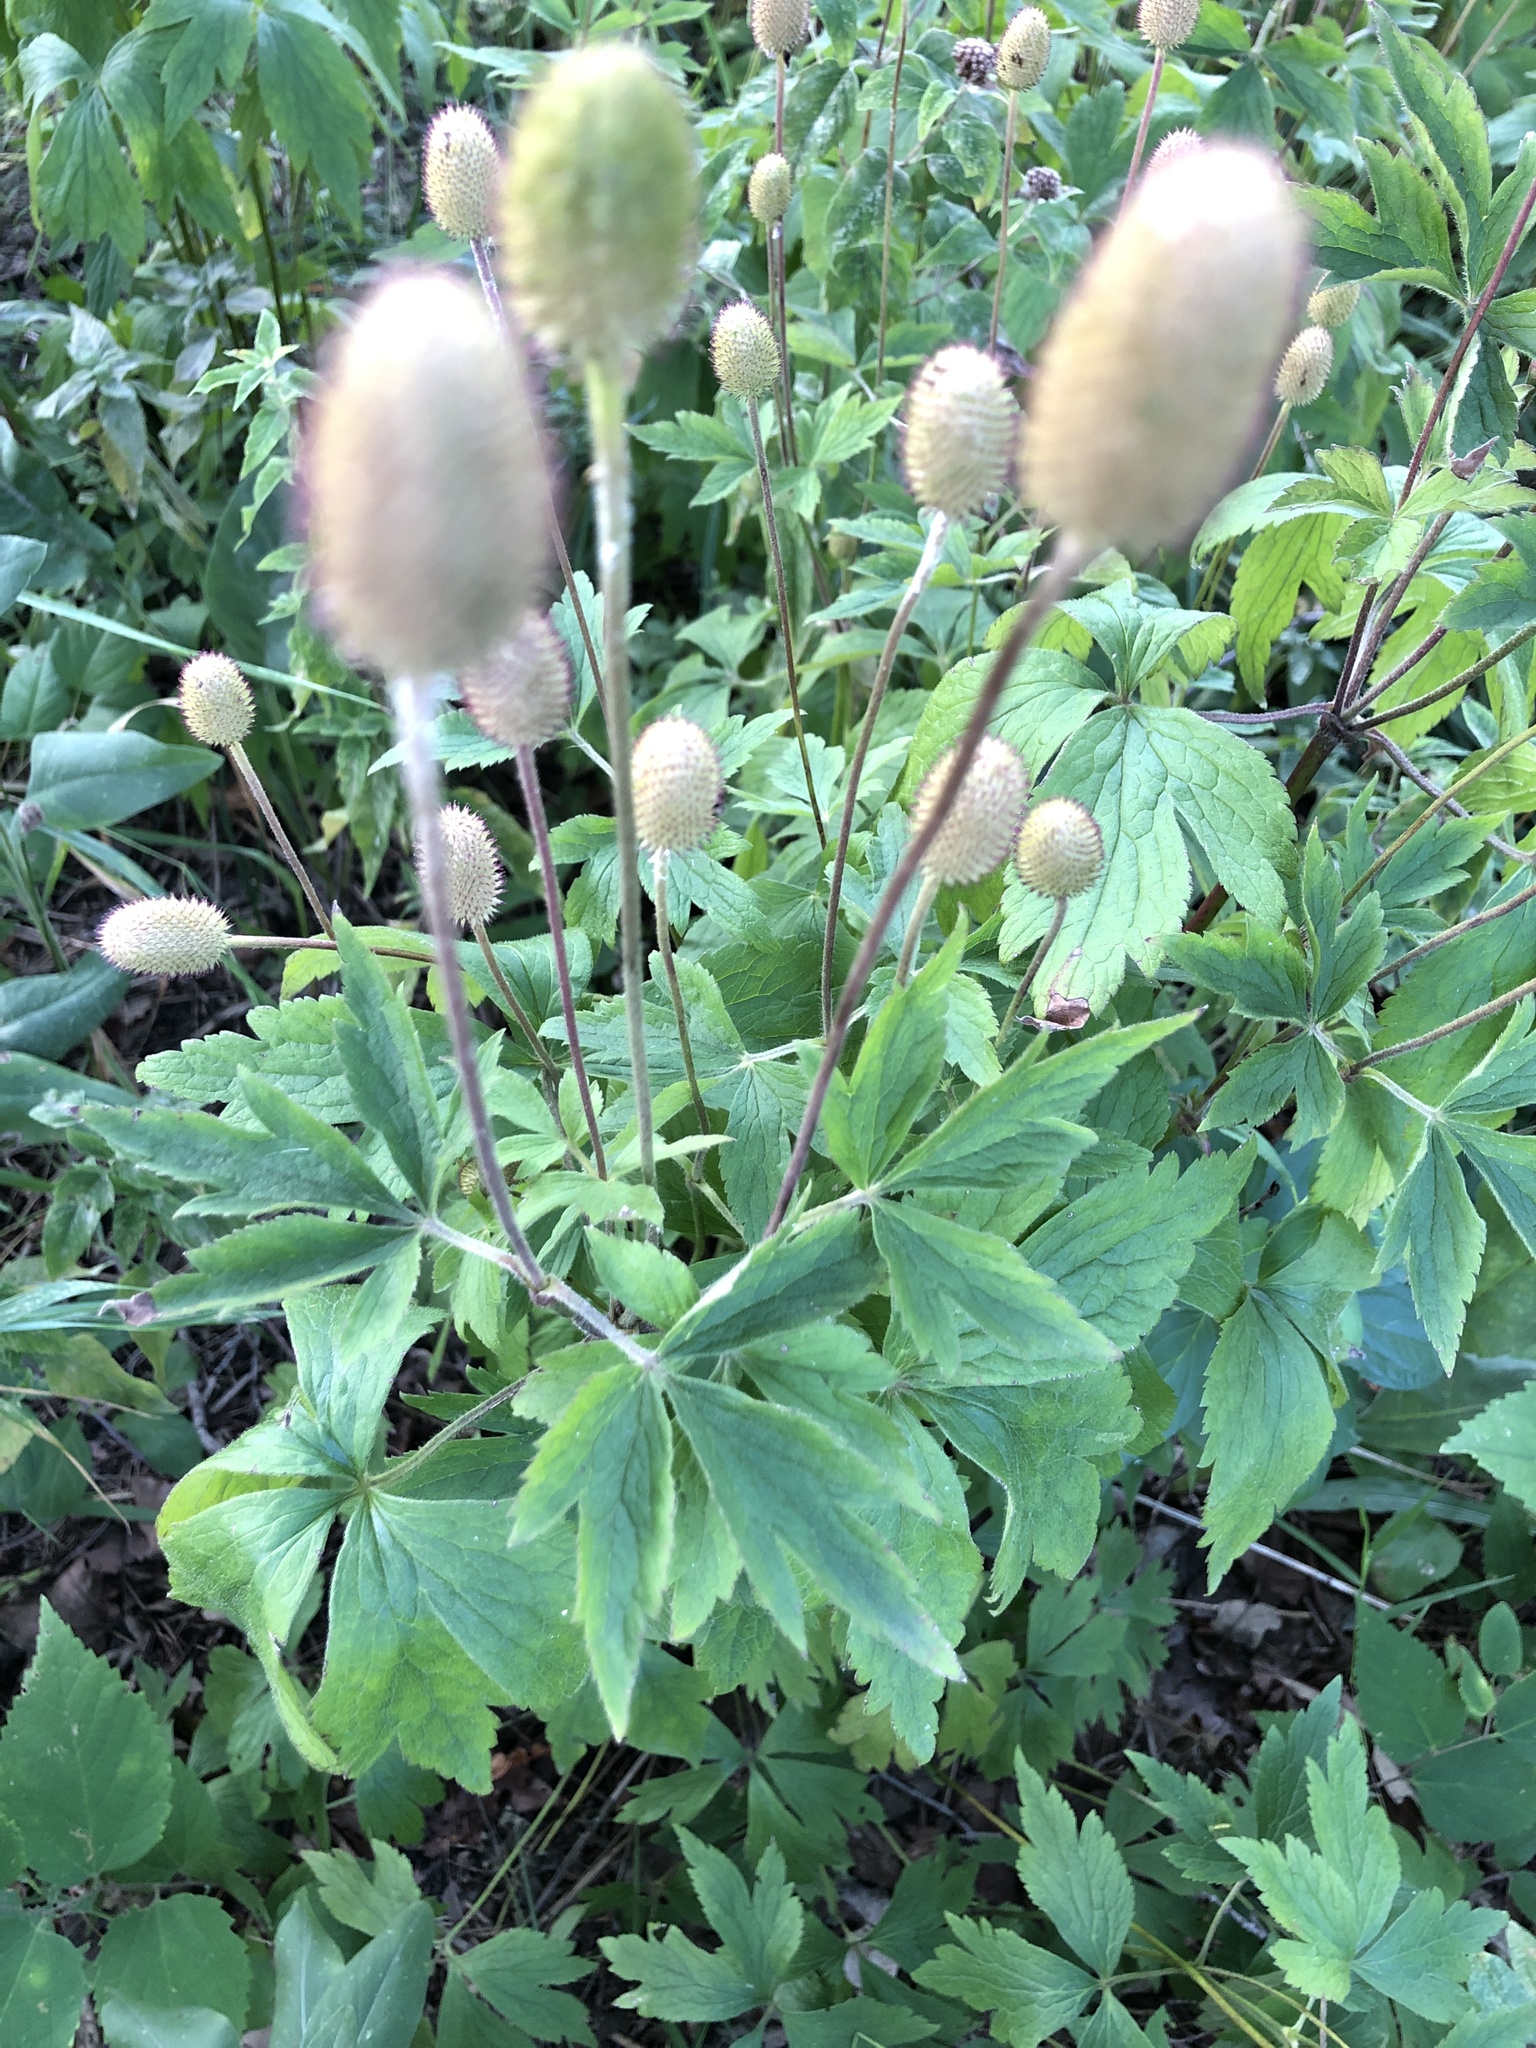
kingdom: Plantae
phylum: Tracheophyta
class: Magnoliopsida
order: Ranunculales
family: Ranunculaceae
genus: Anemone
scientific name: Anemone virginiana
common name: Tall anemone
